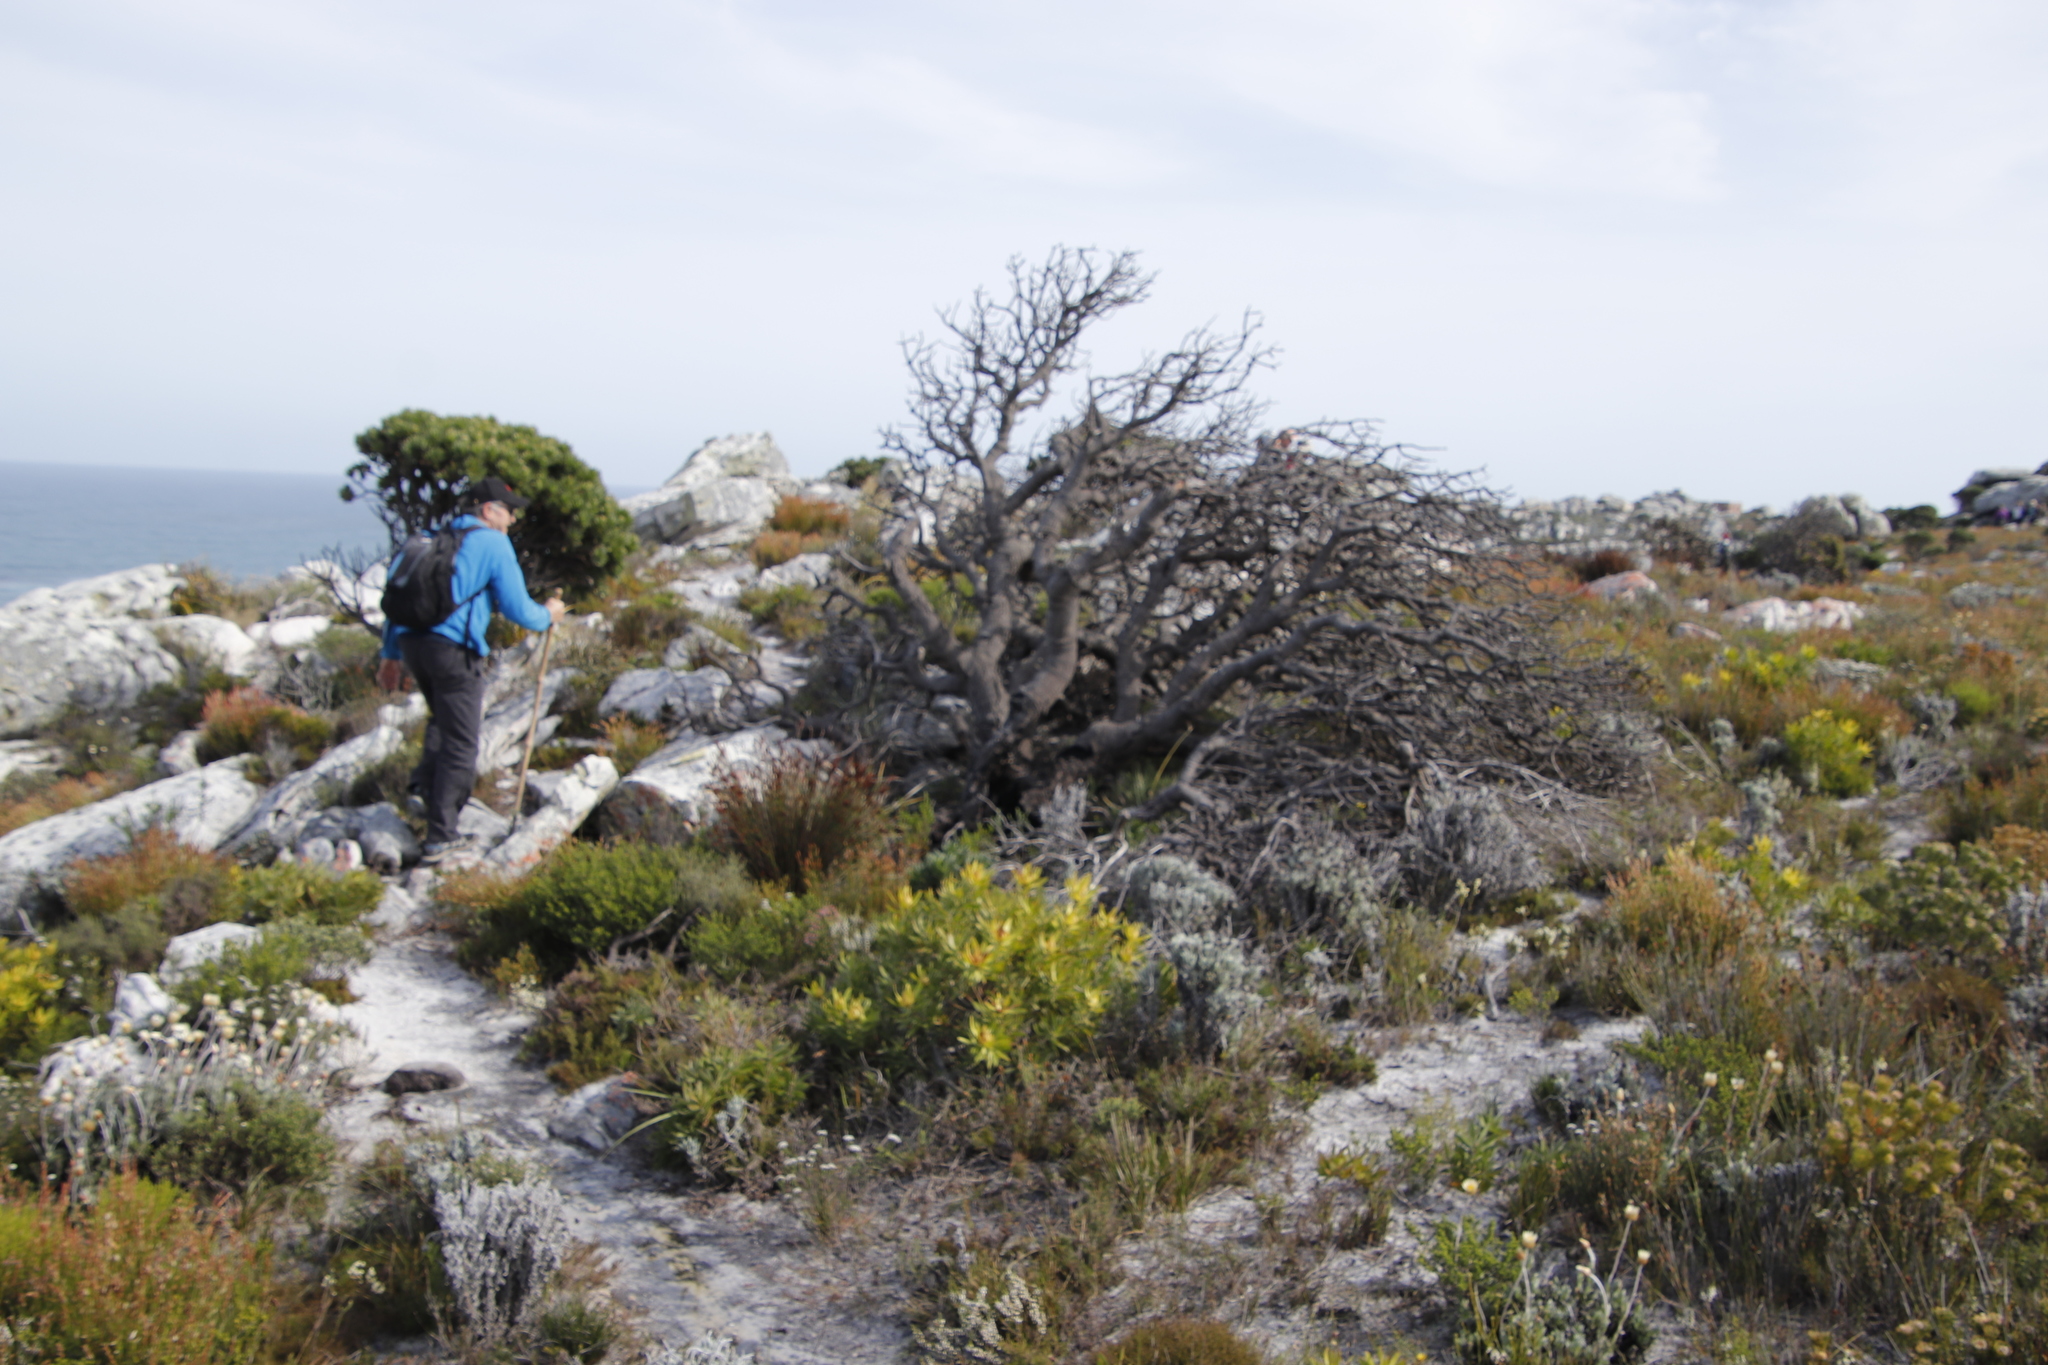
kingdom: Plantae
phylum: Tracheophyta
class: Magnoliopsida
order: Proteales
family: Proteaceae
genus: Leucadendron
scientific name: Leucadendron laureolum
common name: Golden sunshinebush
